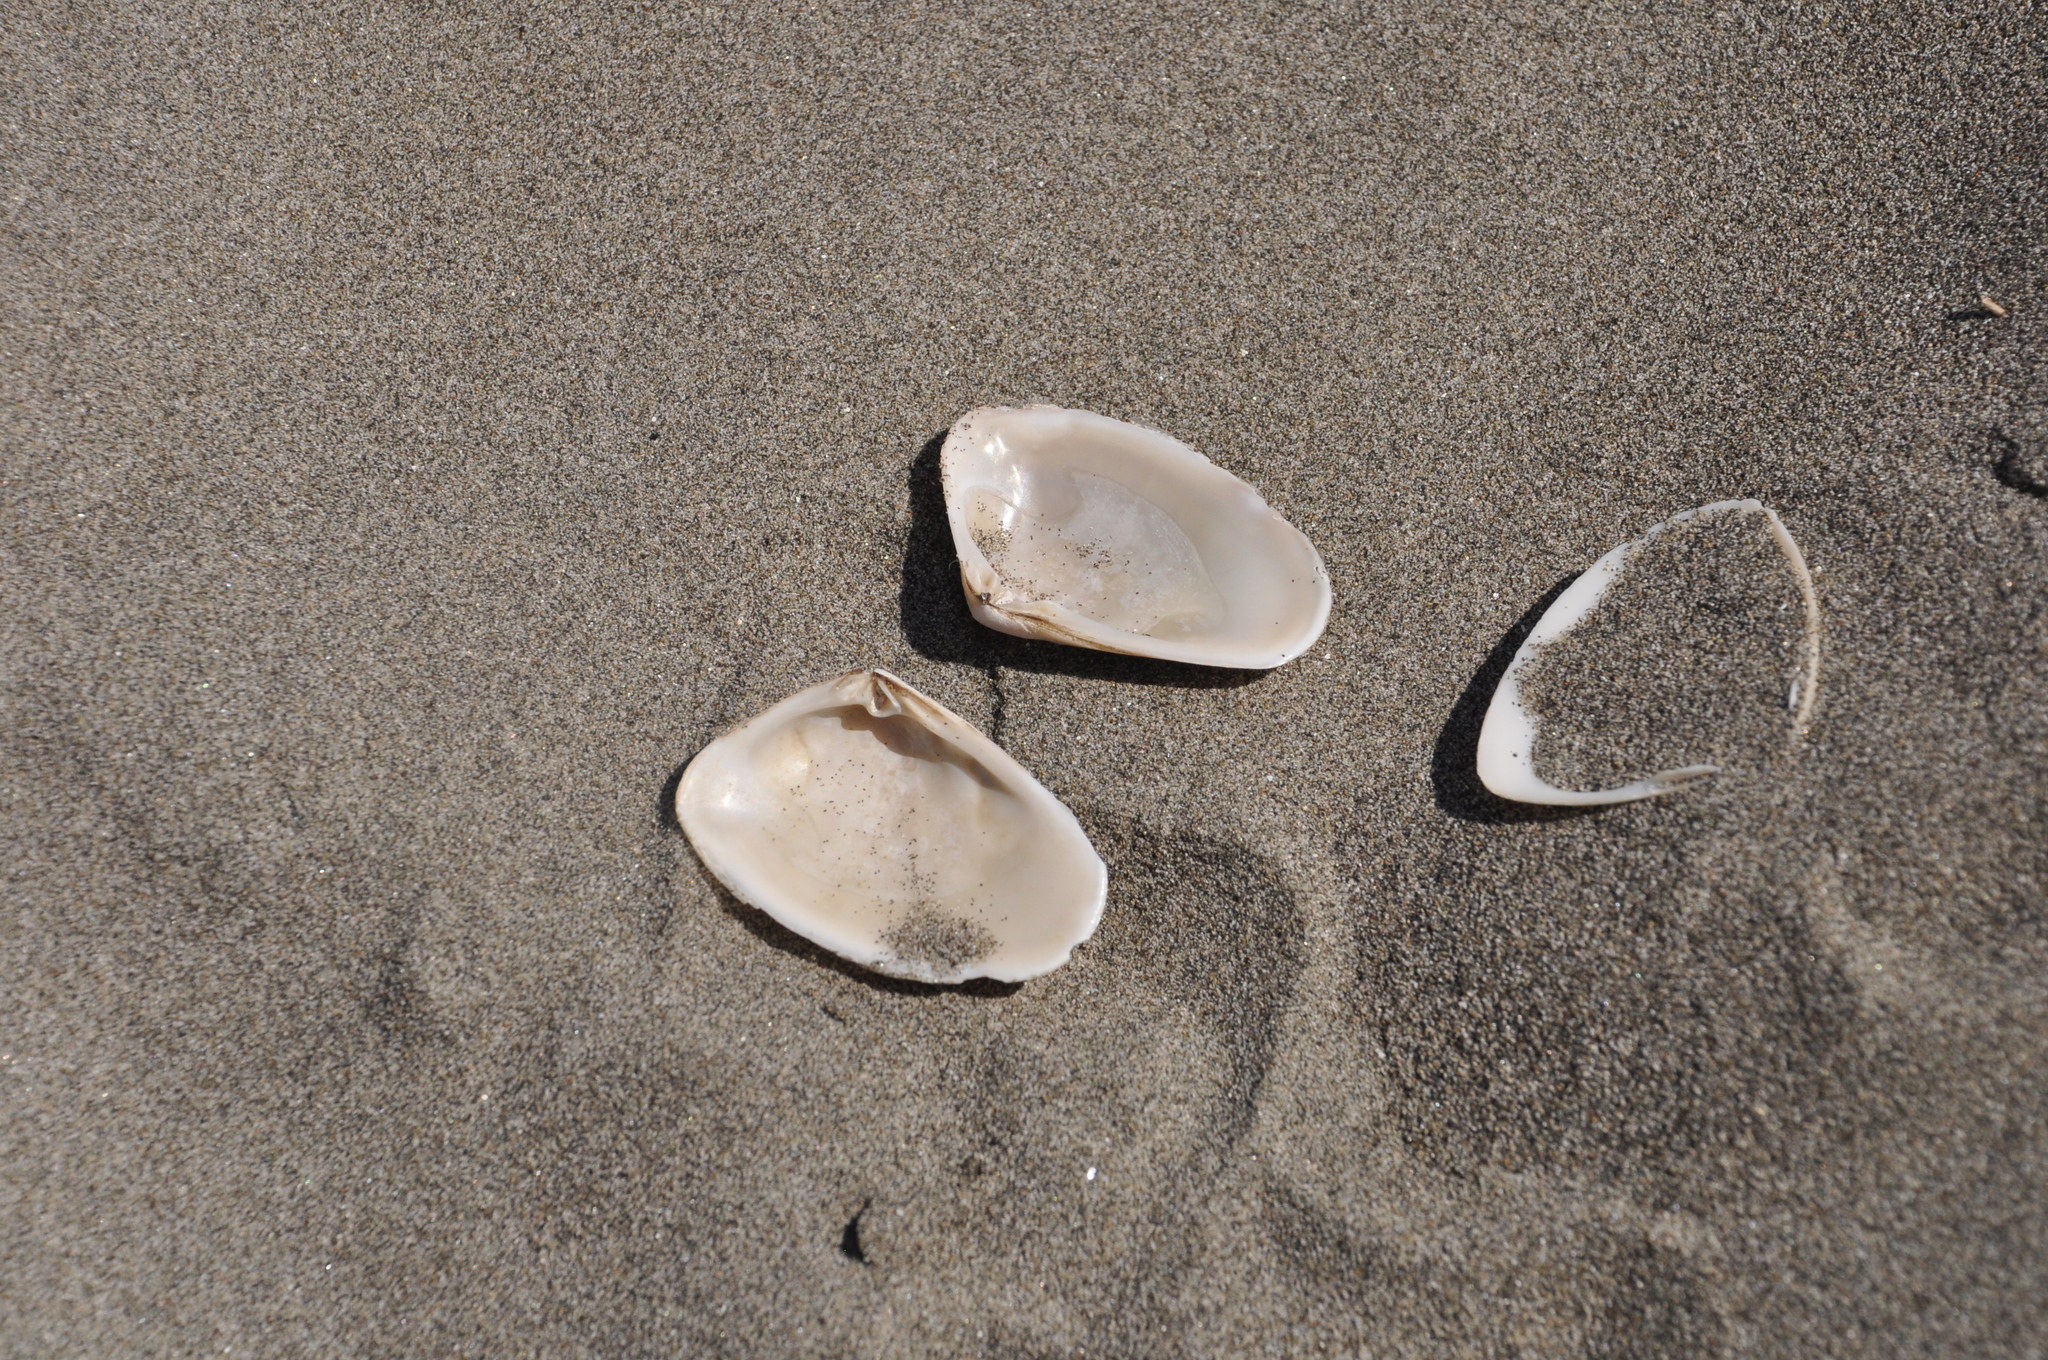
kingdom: Animalia
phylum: Mollusca
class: Bivalvia
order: Venerida
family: Mesodesmatidae
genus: Paphies
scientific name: Paphies subtriangulata
